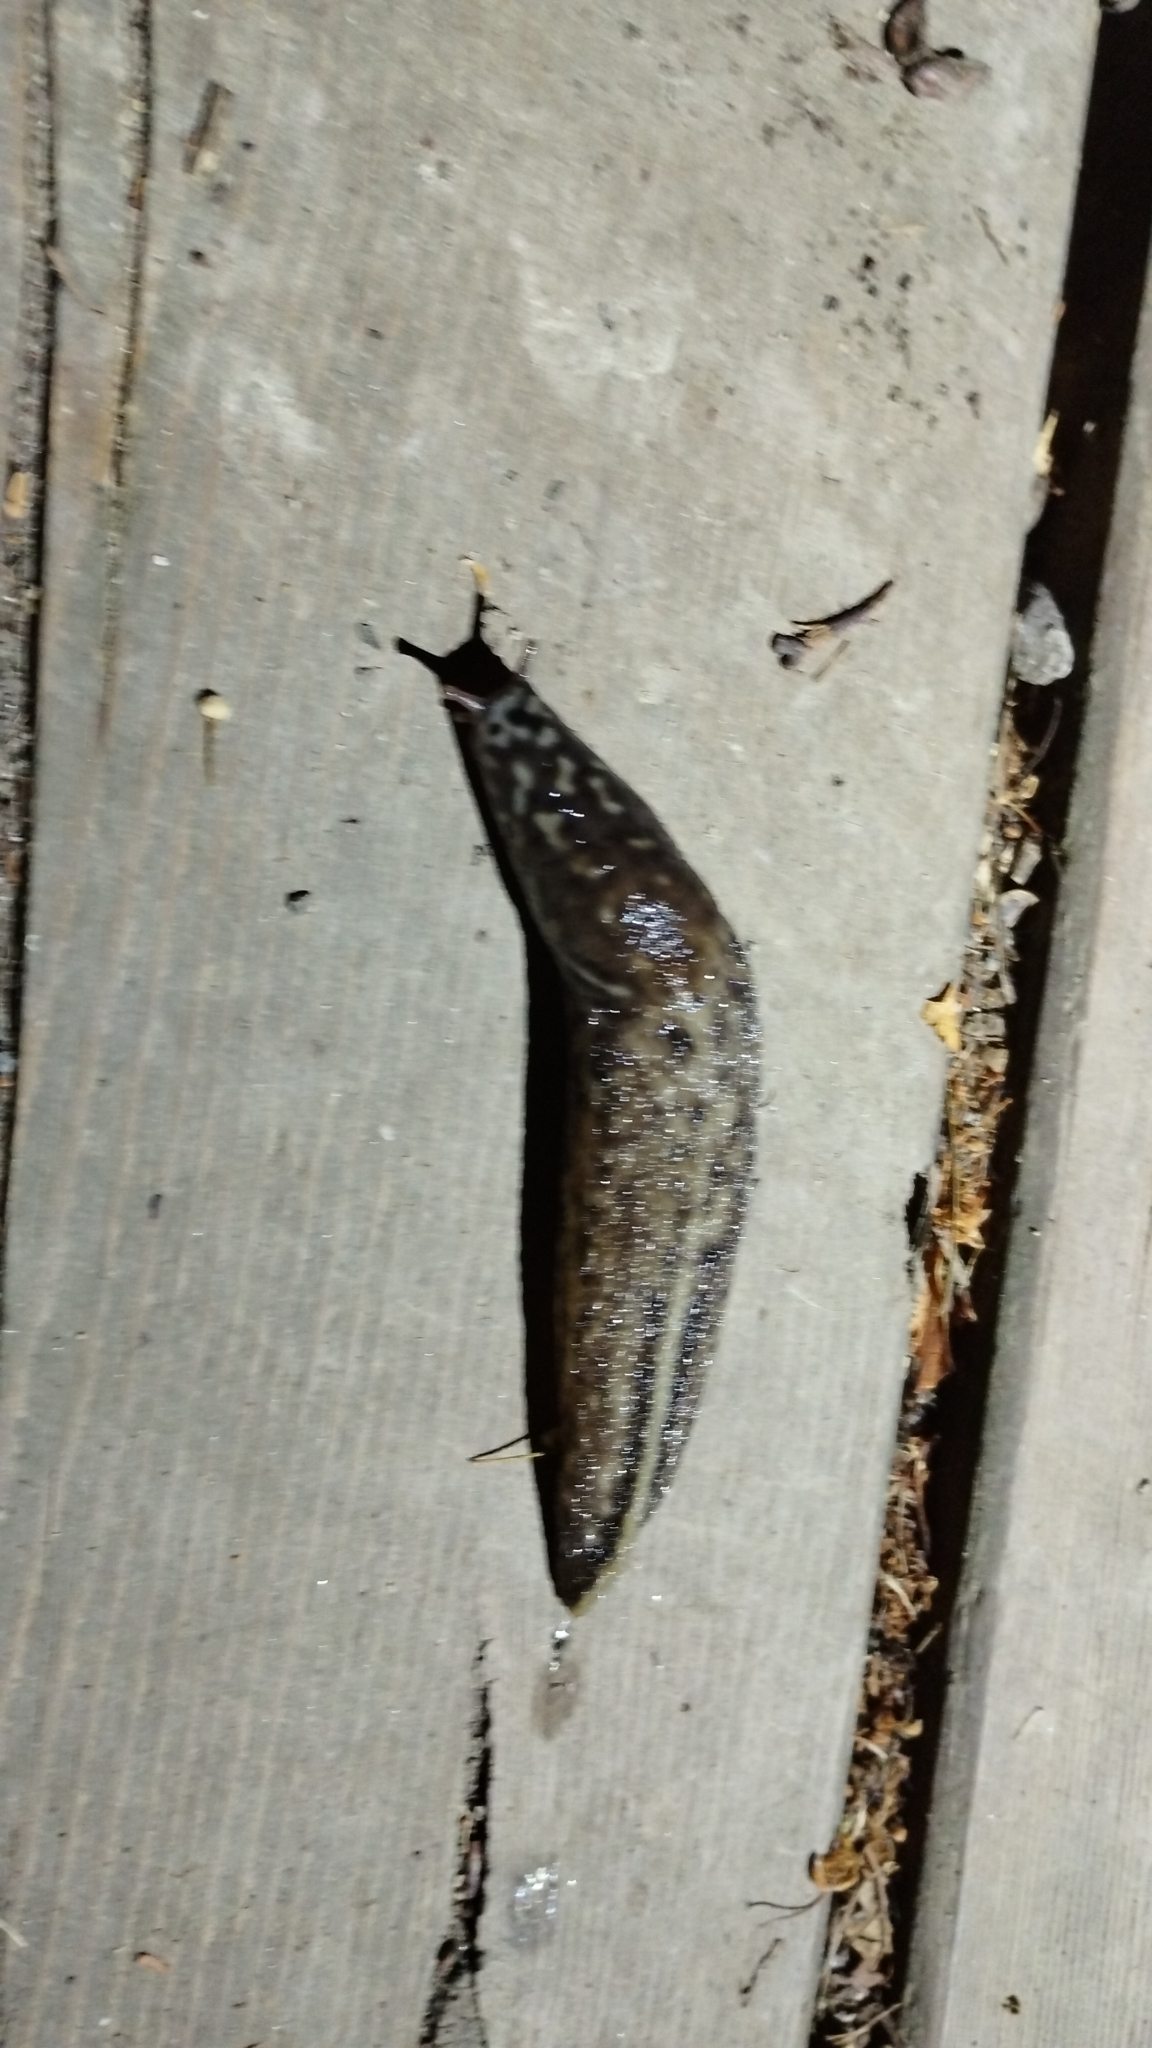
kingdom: Animalia
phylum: Mollusca
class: Gastropoda
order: Stylommatophora
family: Limacidae
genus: Limax
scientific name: Limax maximus
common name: Great grey slug
